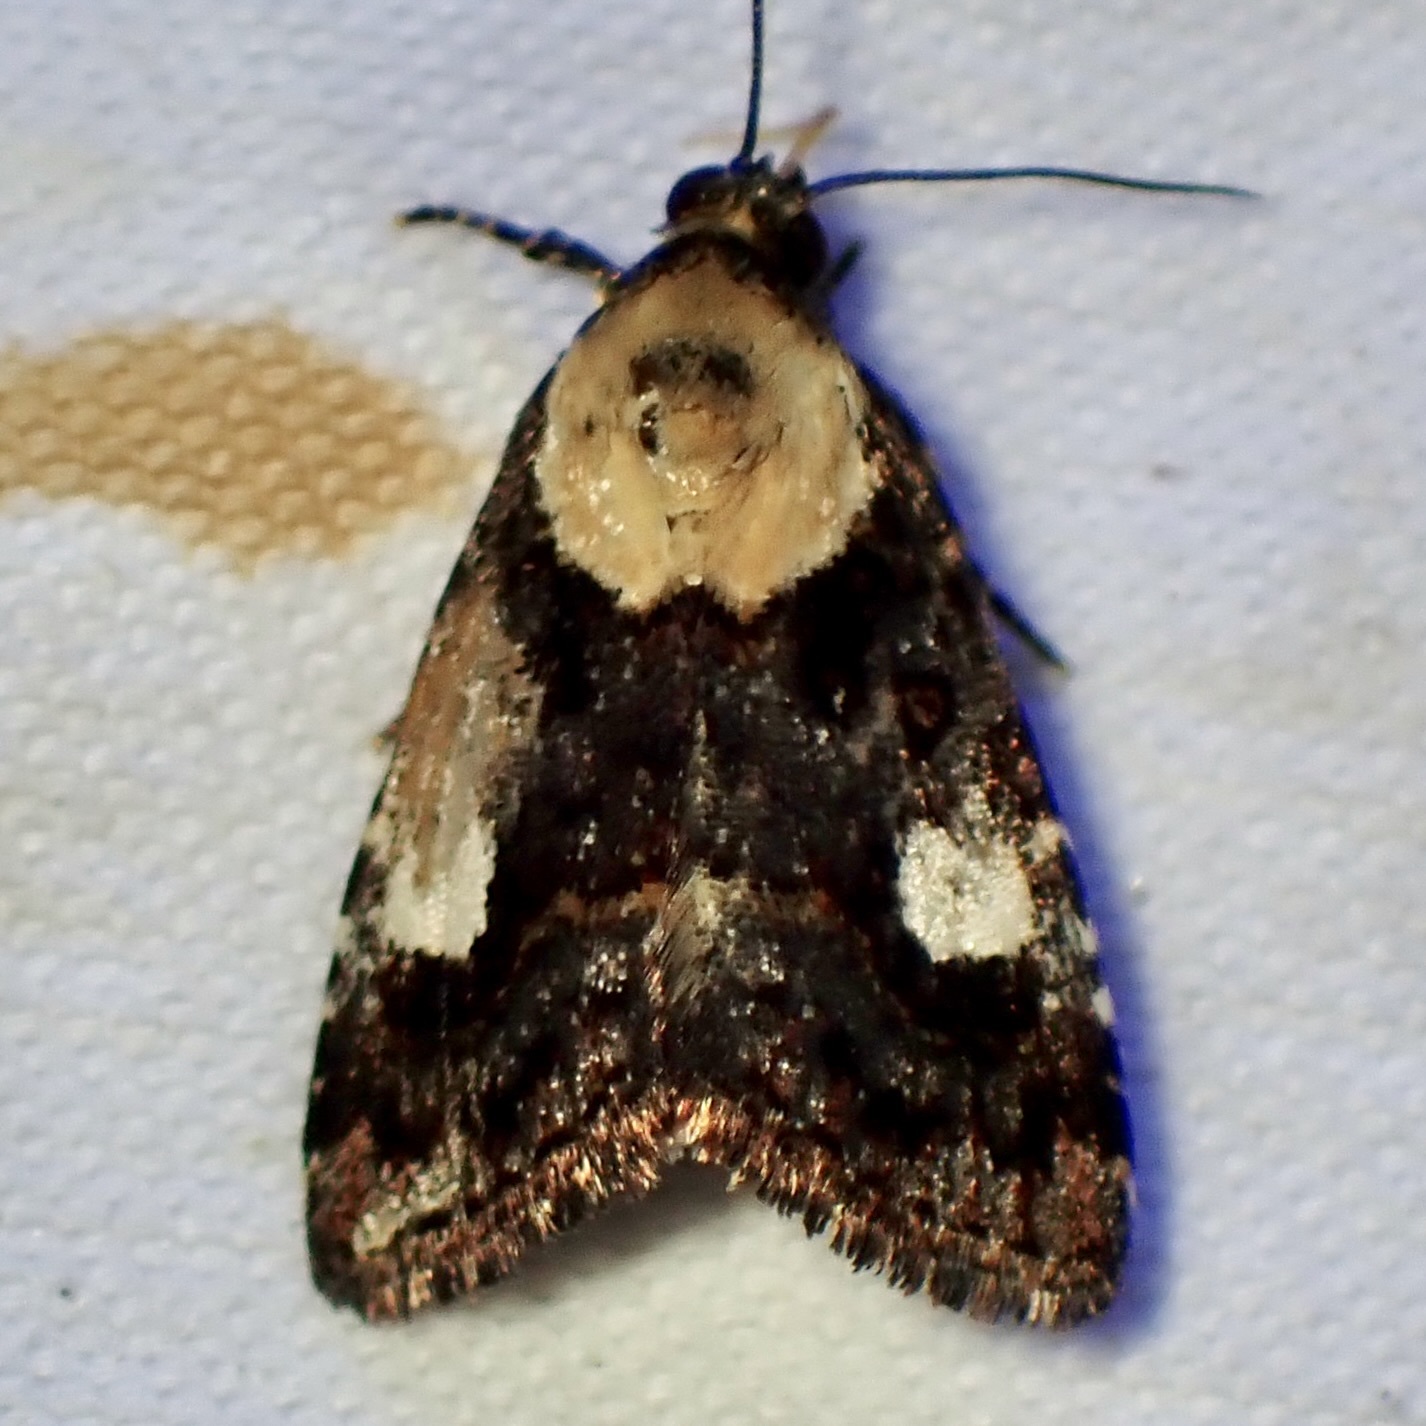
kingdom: Animalia
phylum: Arthropoda
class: Insecta
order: Lepidoptera
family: Noctuidae
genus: Lithacodia
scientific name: Lithacodia phya
